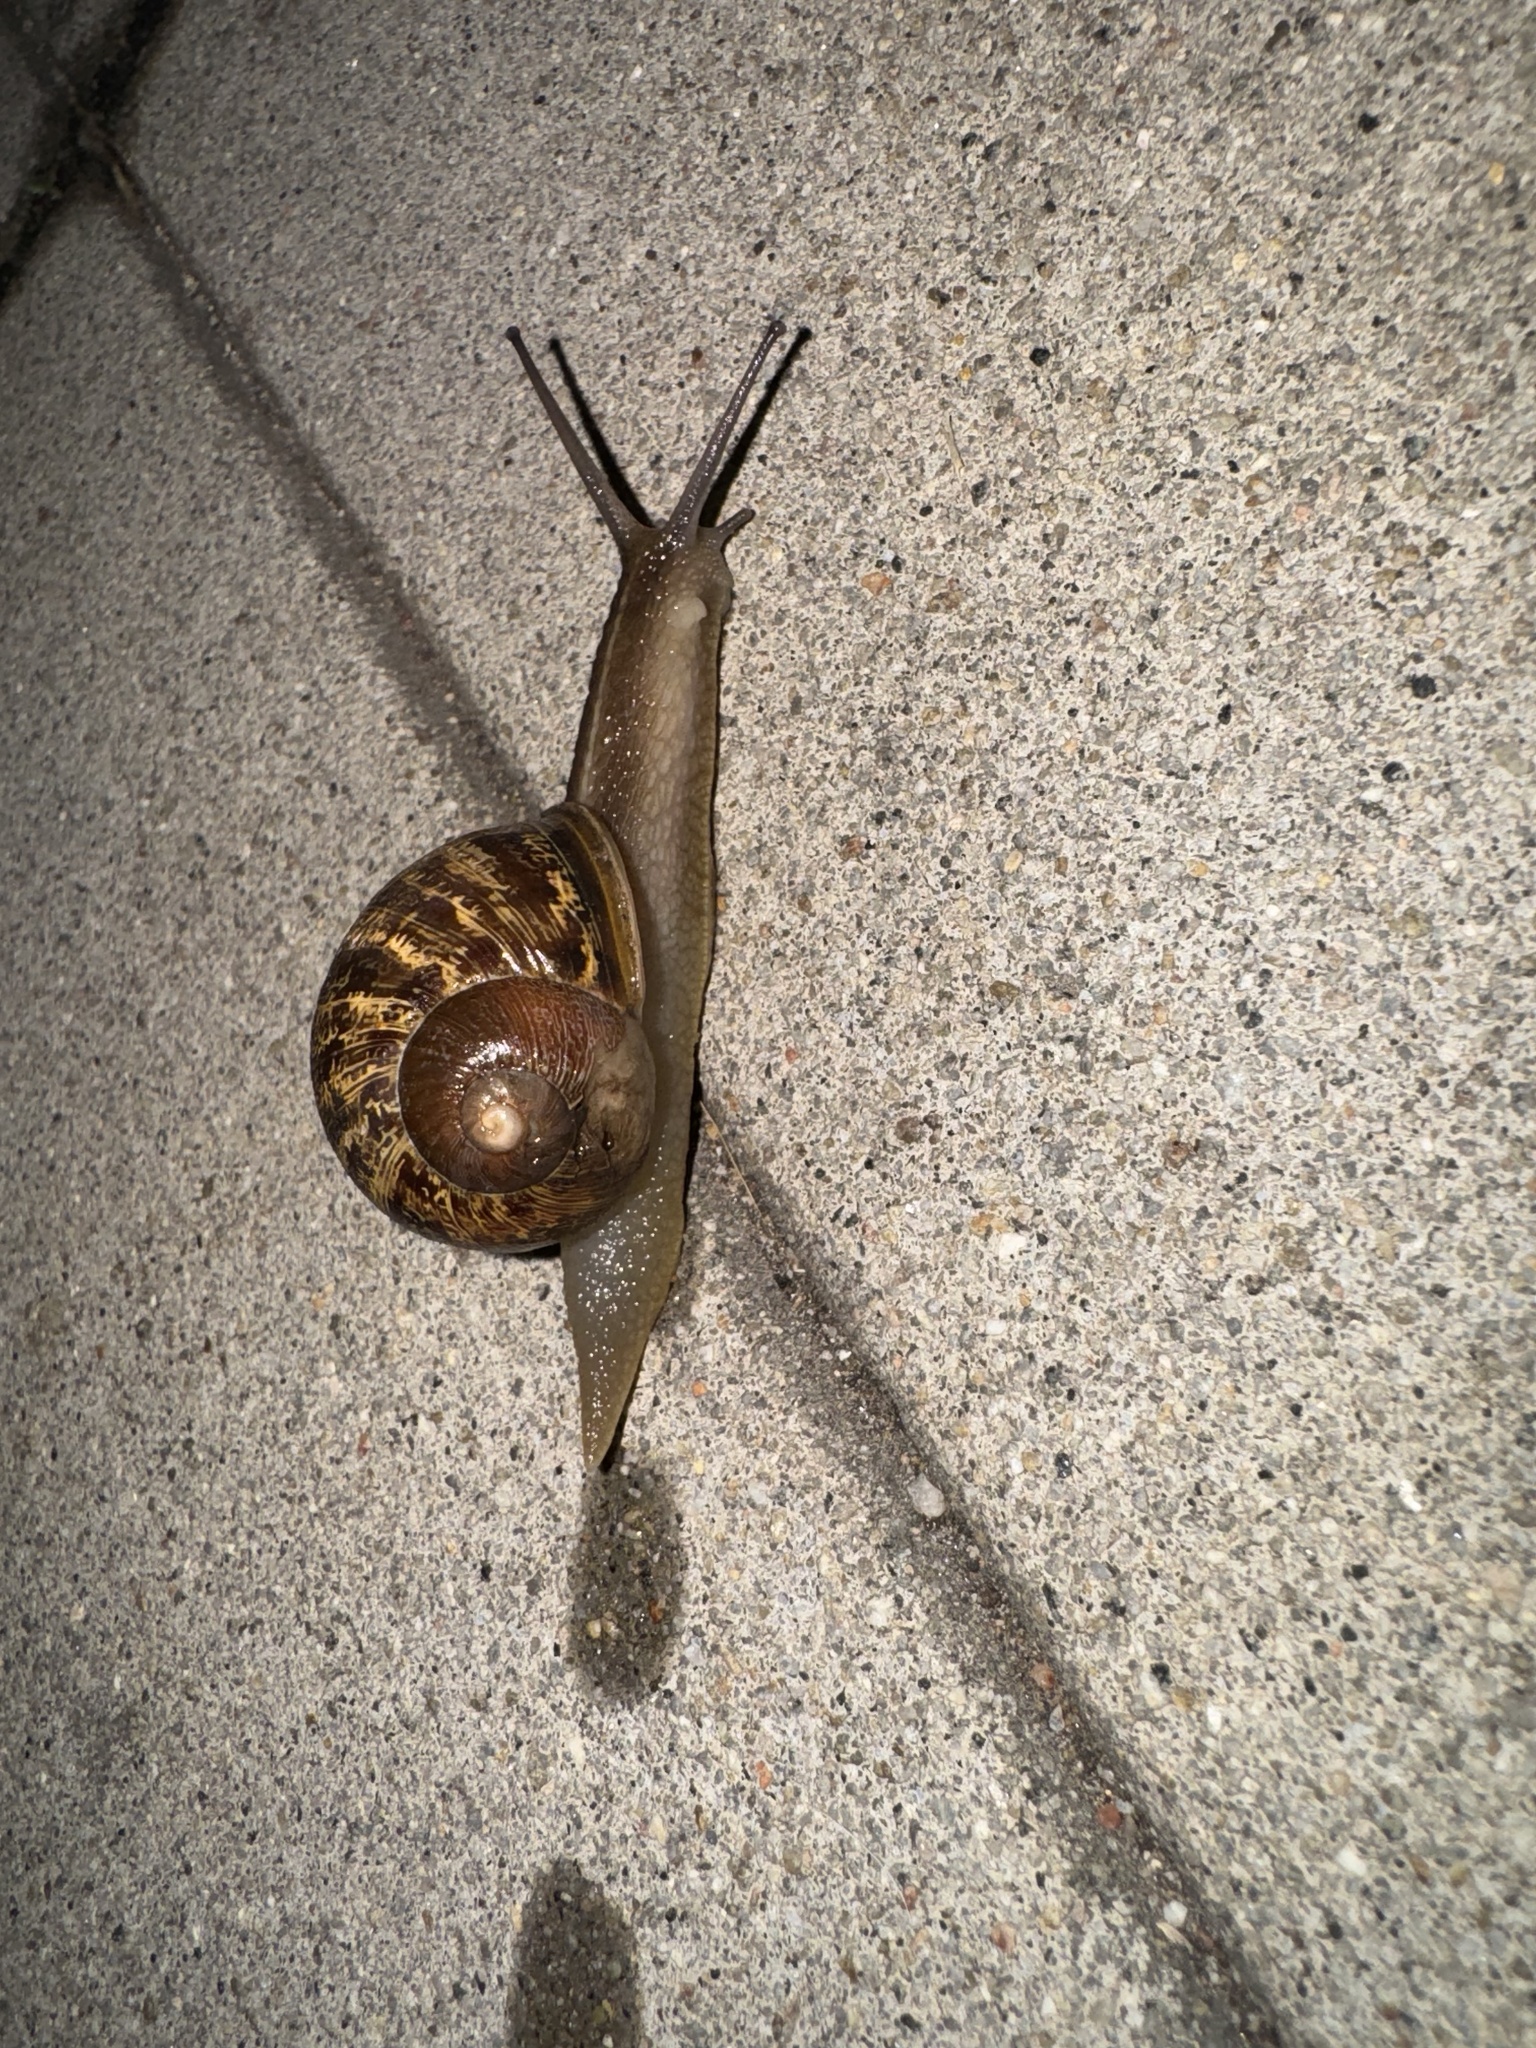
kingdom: Animalia
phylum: Mollusca
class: Gastropoda
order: Stylommatophora
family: Helicidae
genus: Cornu
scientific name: Cornu aspersum
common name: Brown garden snail
